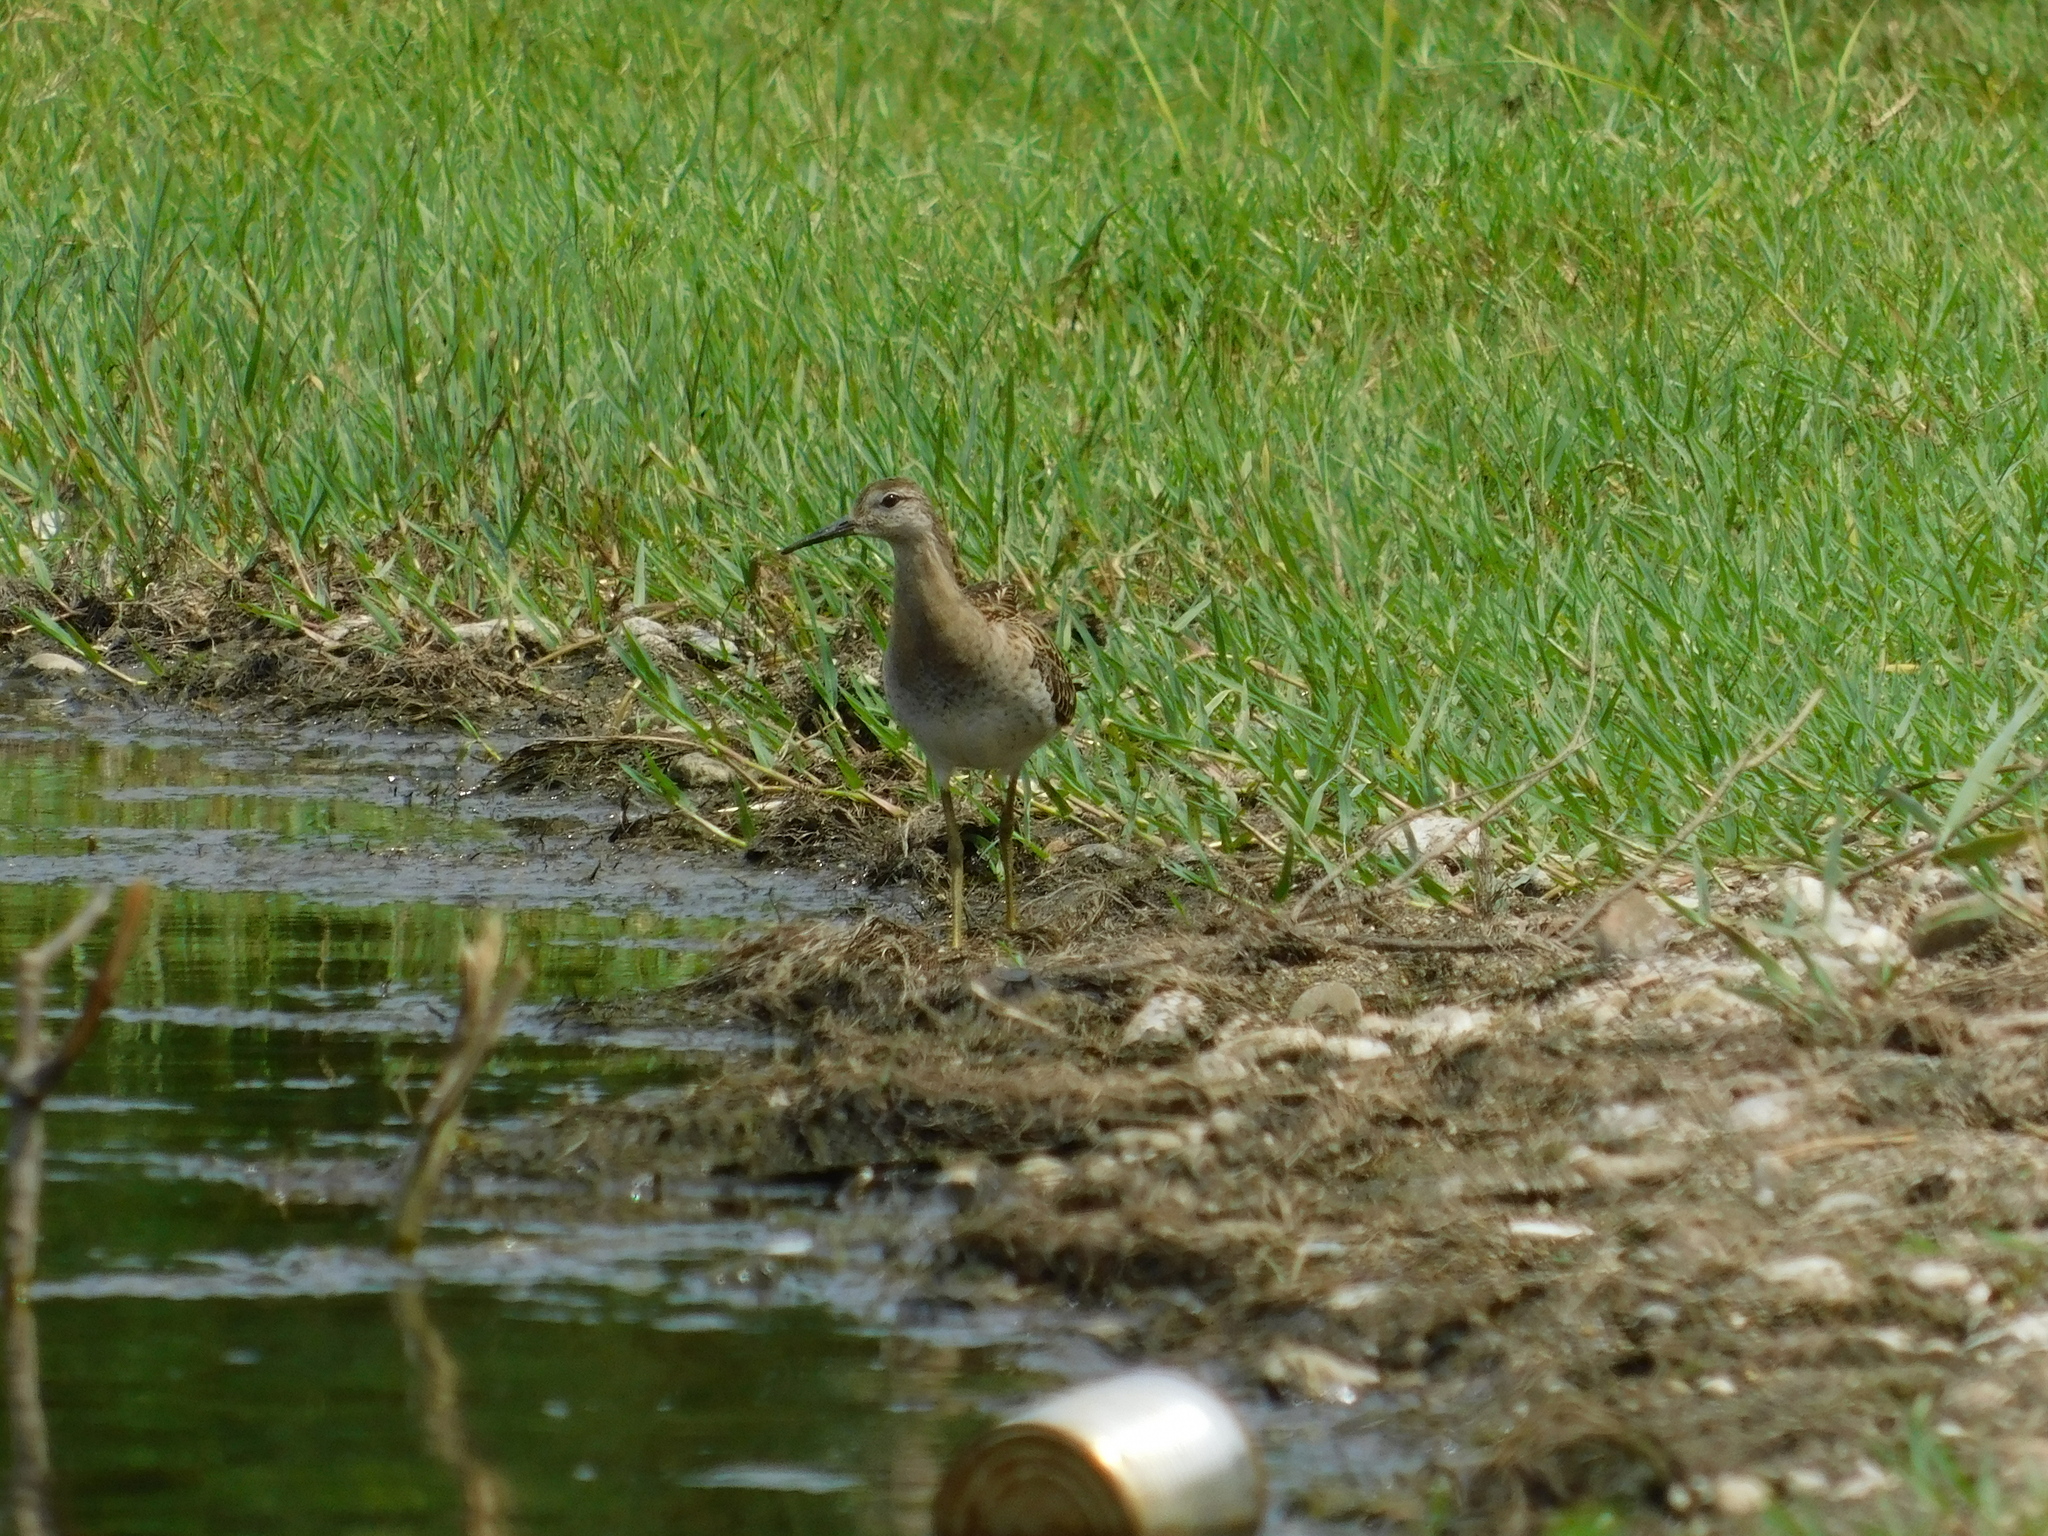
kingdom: Animalia
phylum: Chordata
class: Aves
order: Charadriiformes
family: Scolopacidae
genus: Calidris
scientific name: Calidris pugnax
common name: Ruff
